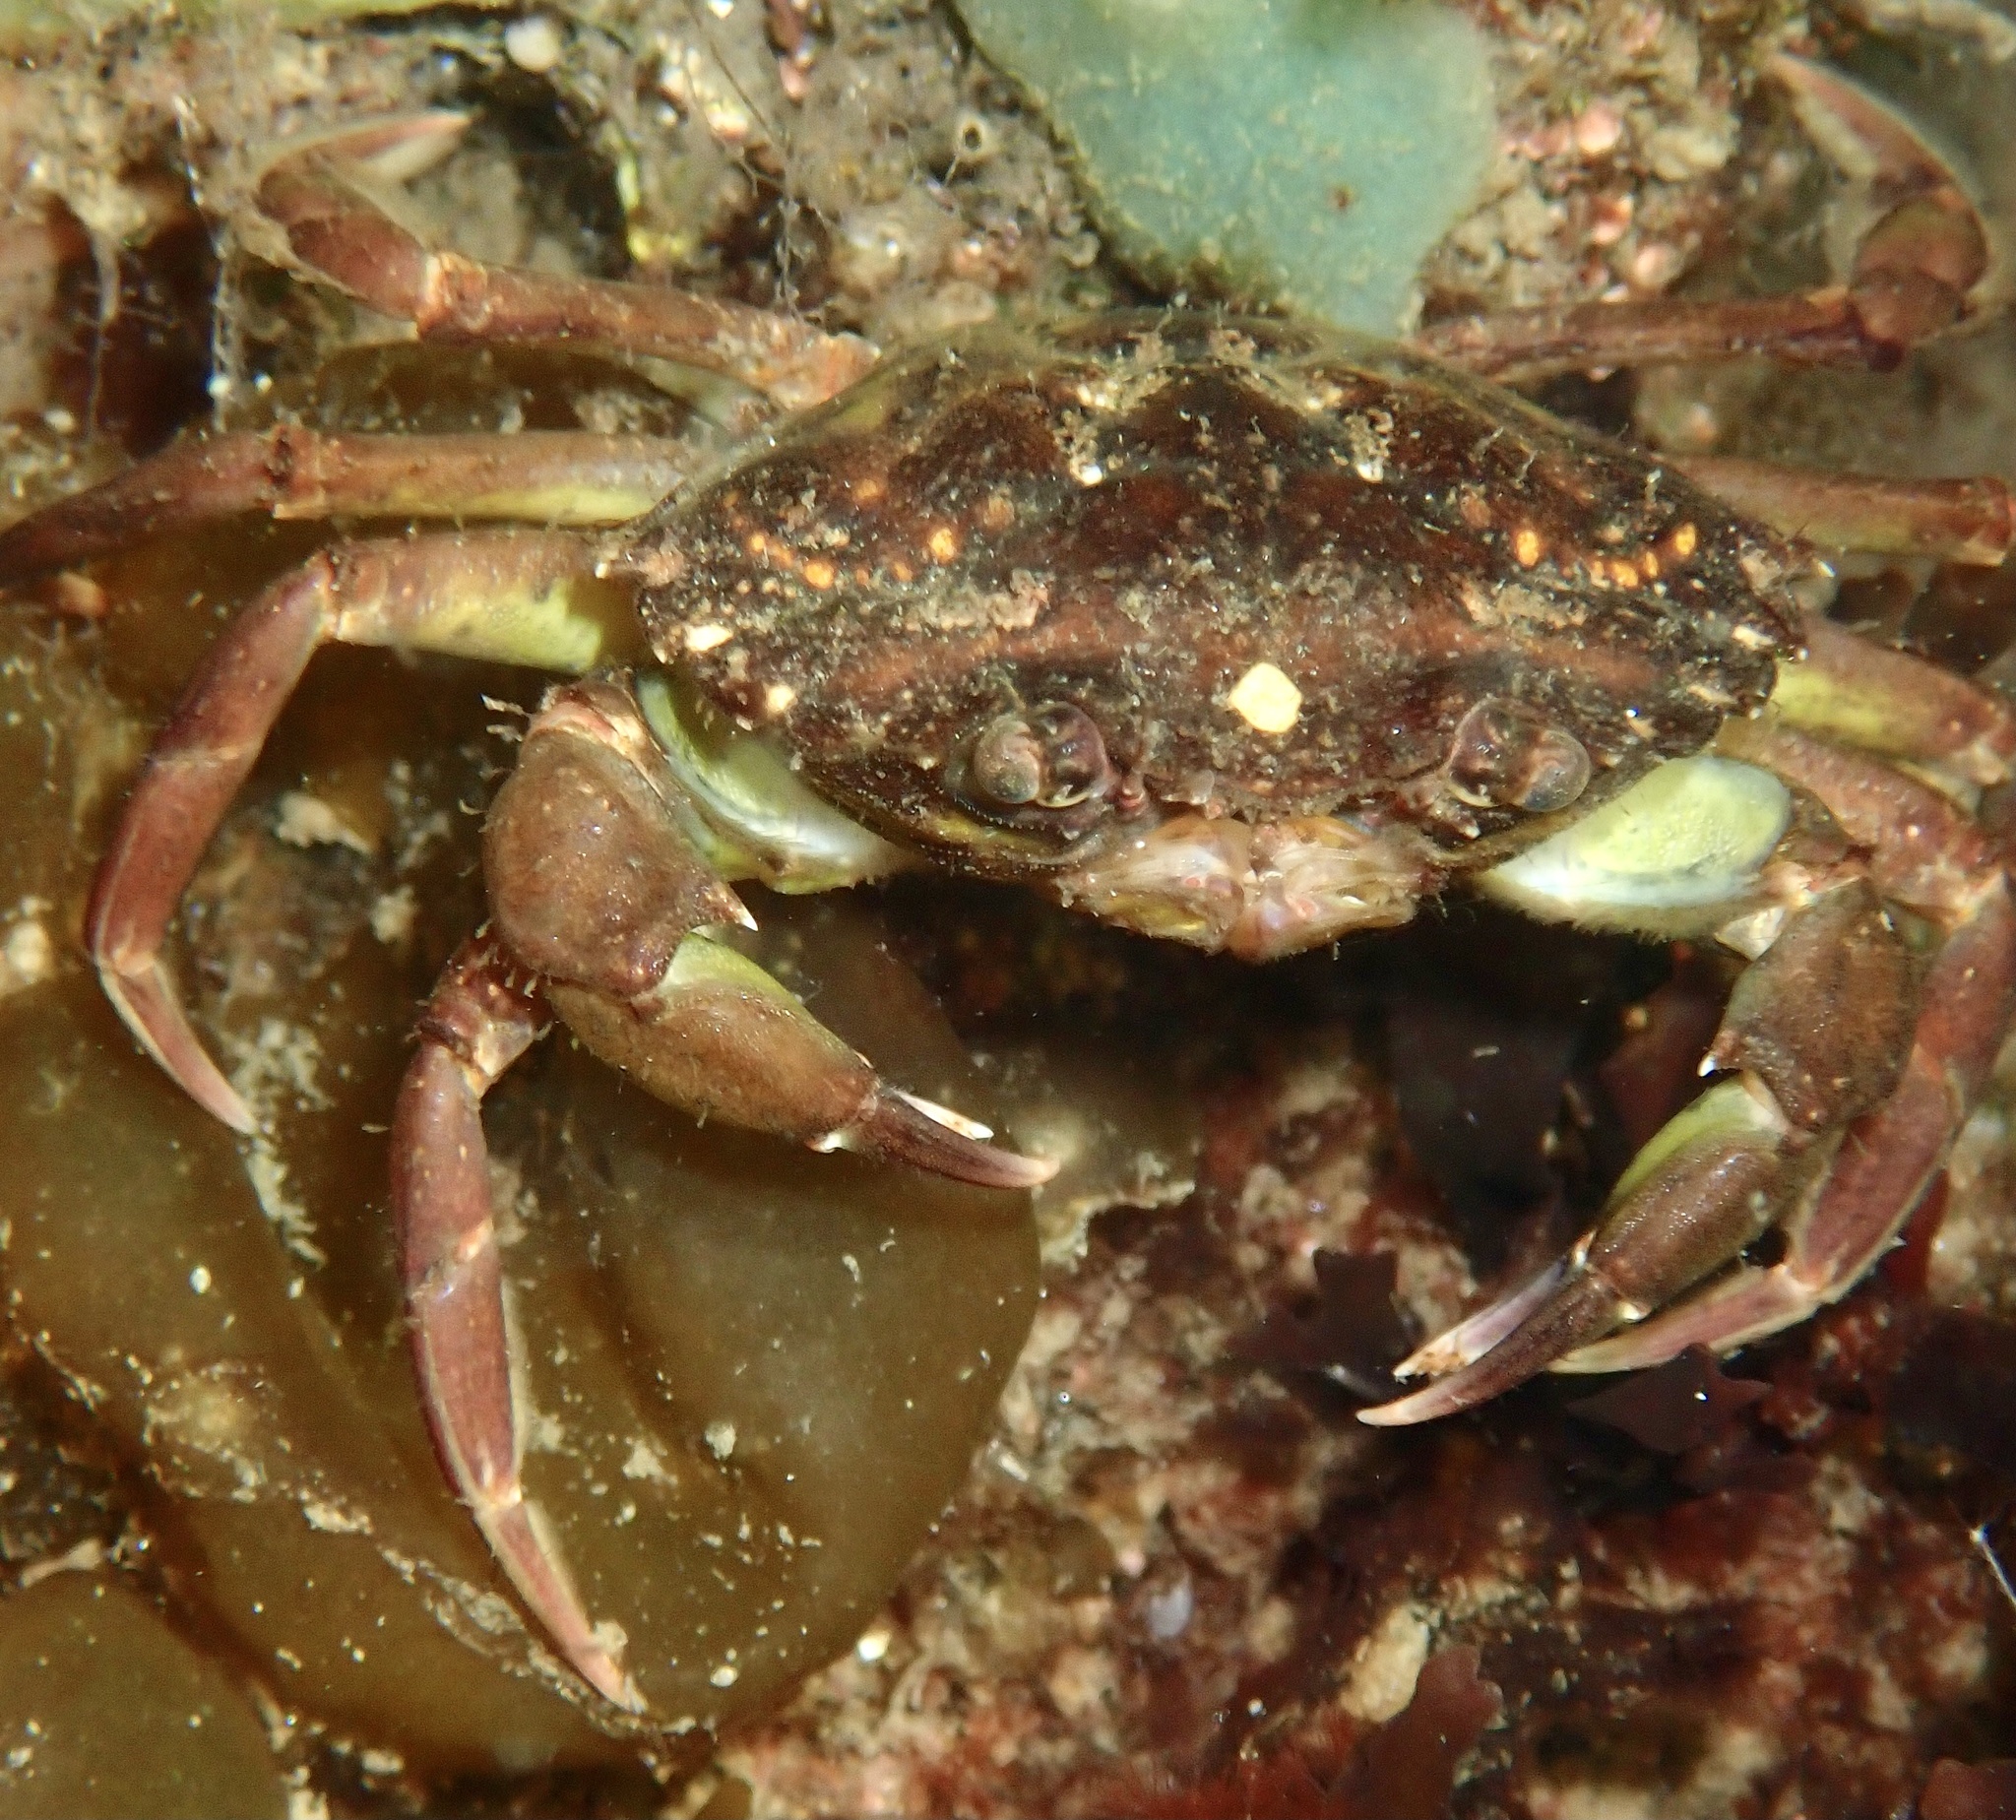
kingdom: Animalia
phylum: Arthropoda
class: Malacostraca
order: Decapoda
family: Carcinidae
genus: Carcinus
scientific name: Carcinus maenas
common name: European green crab
